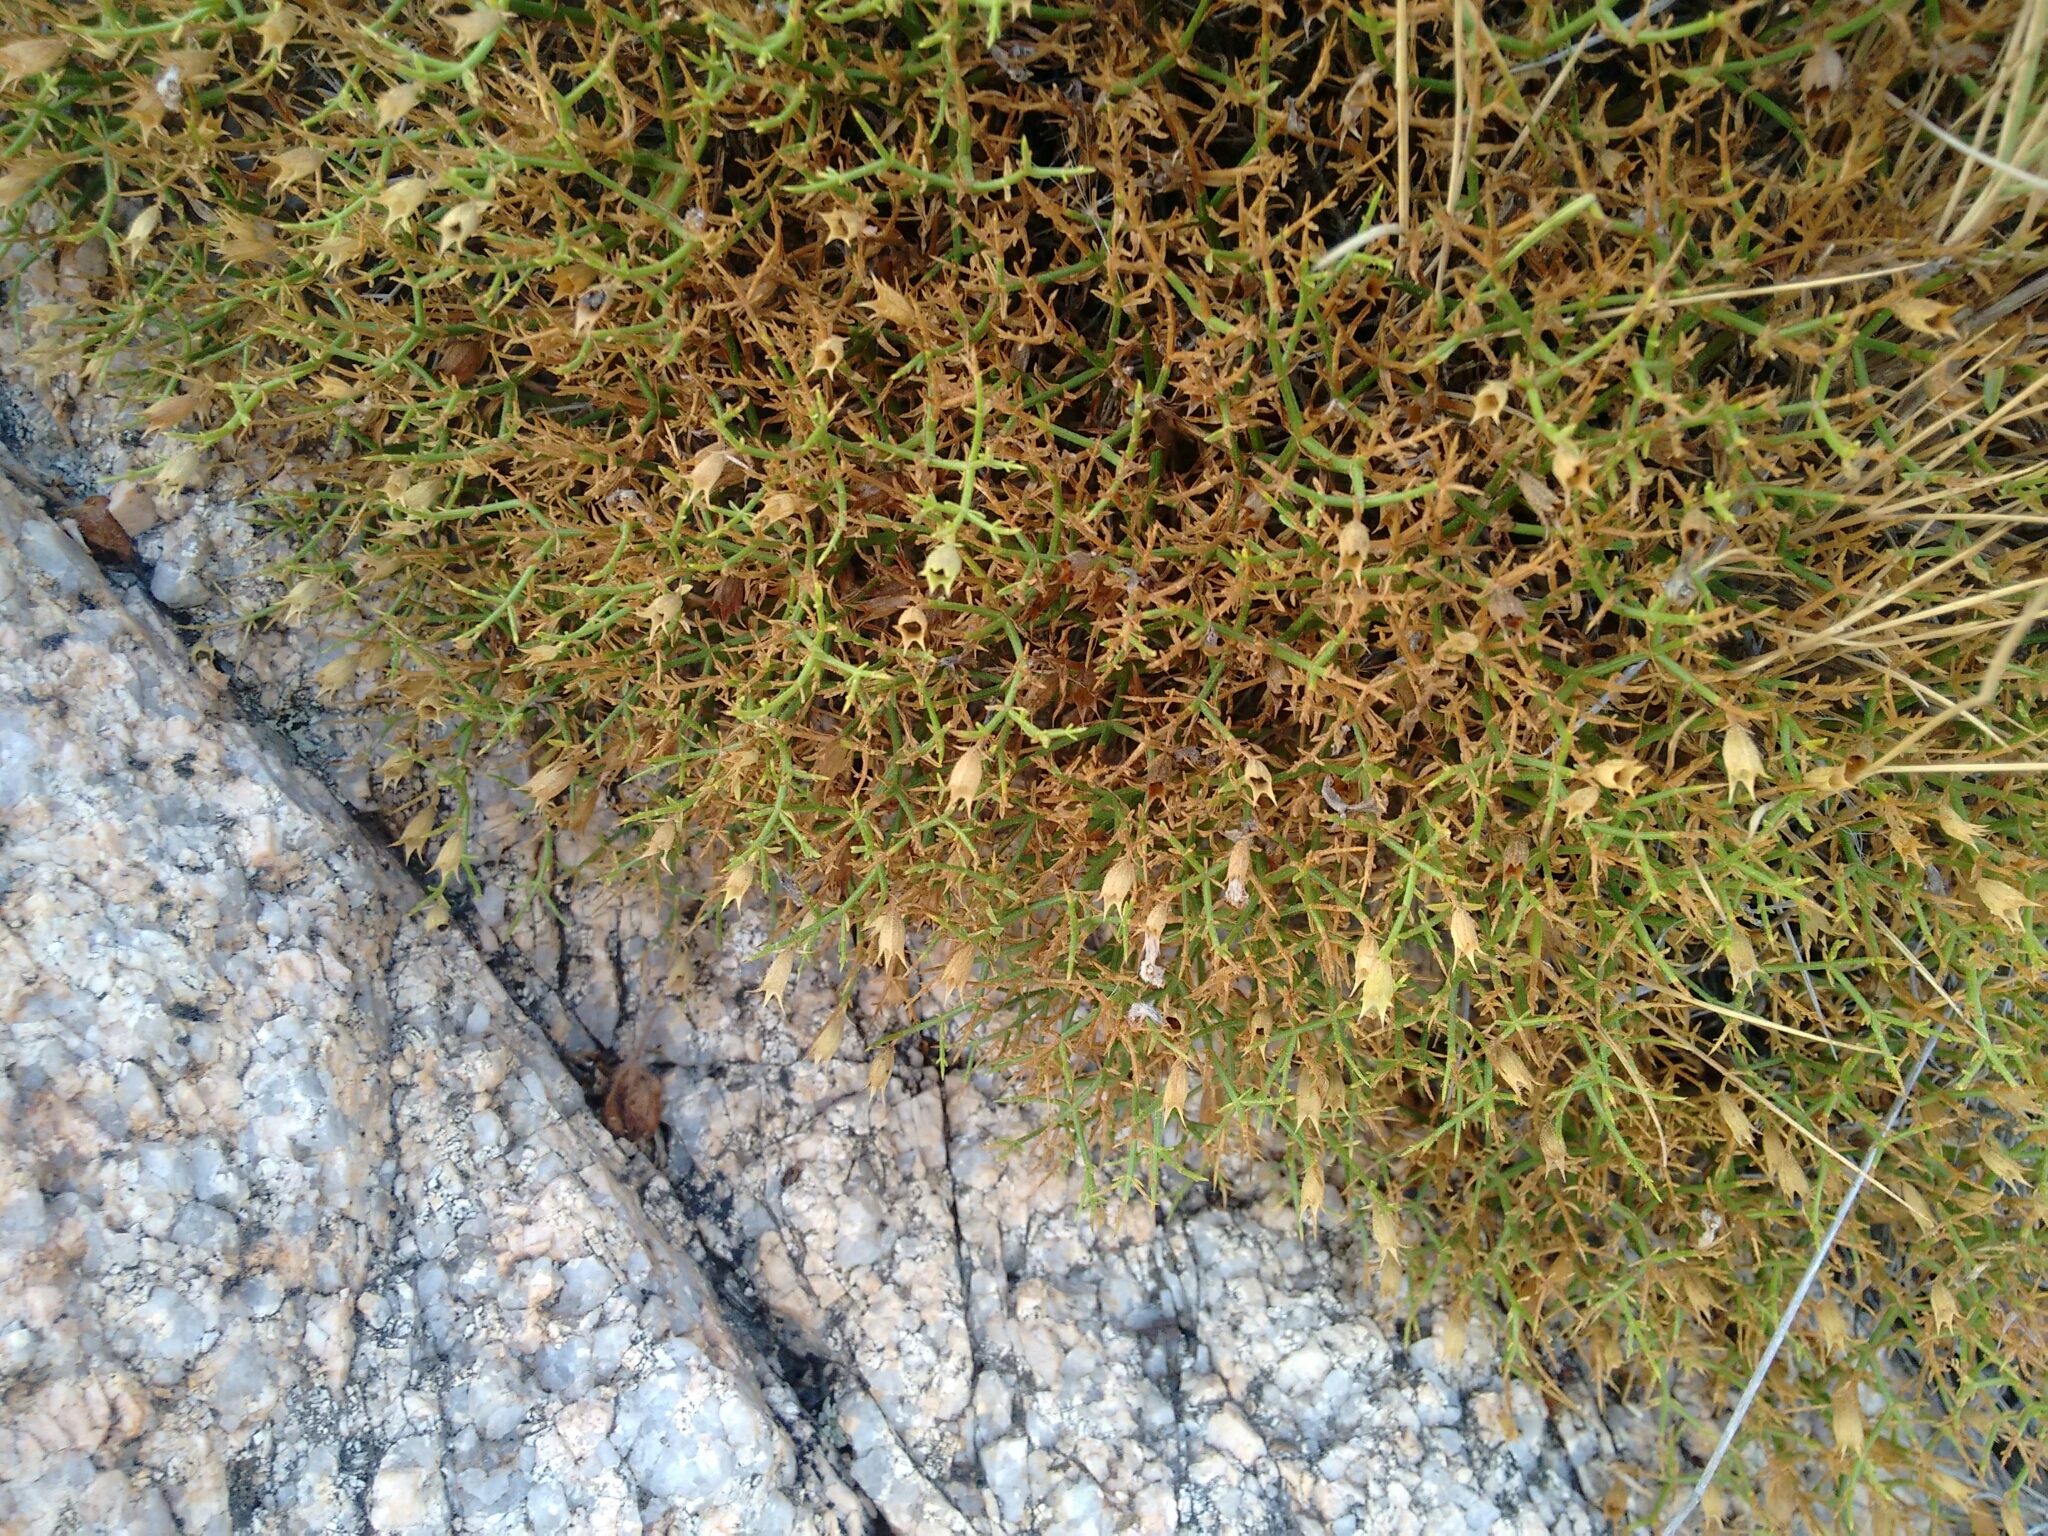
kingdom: Plantae
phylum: Tracheophyta
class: Magnoliopsida
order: Lamiales
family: Lamiaceae
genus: Stachys
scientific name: Stachys glutinosa
